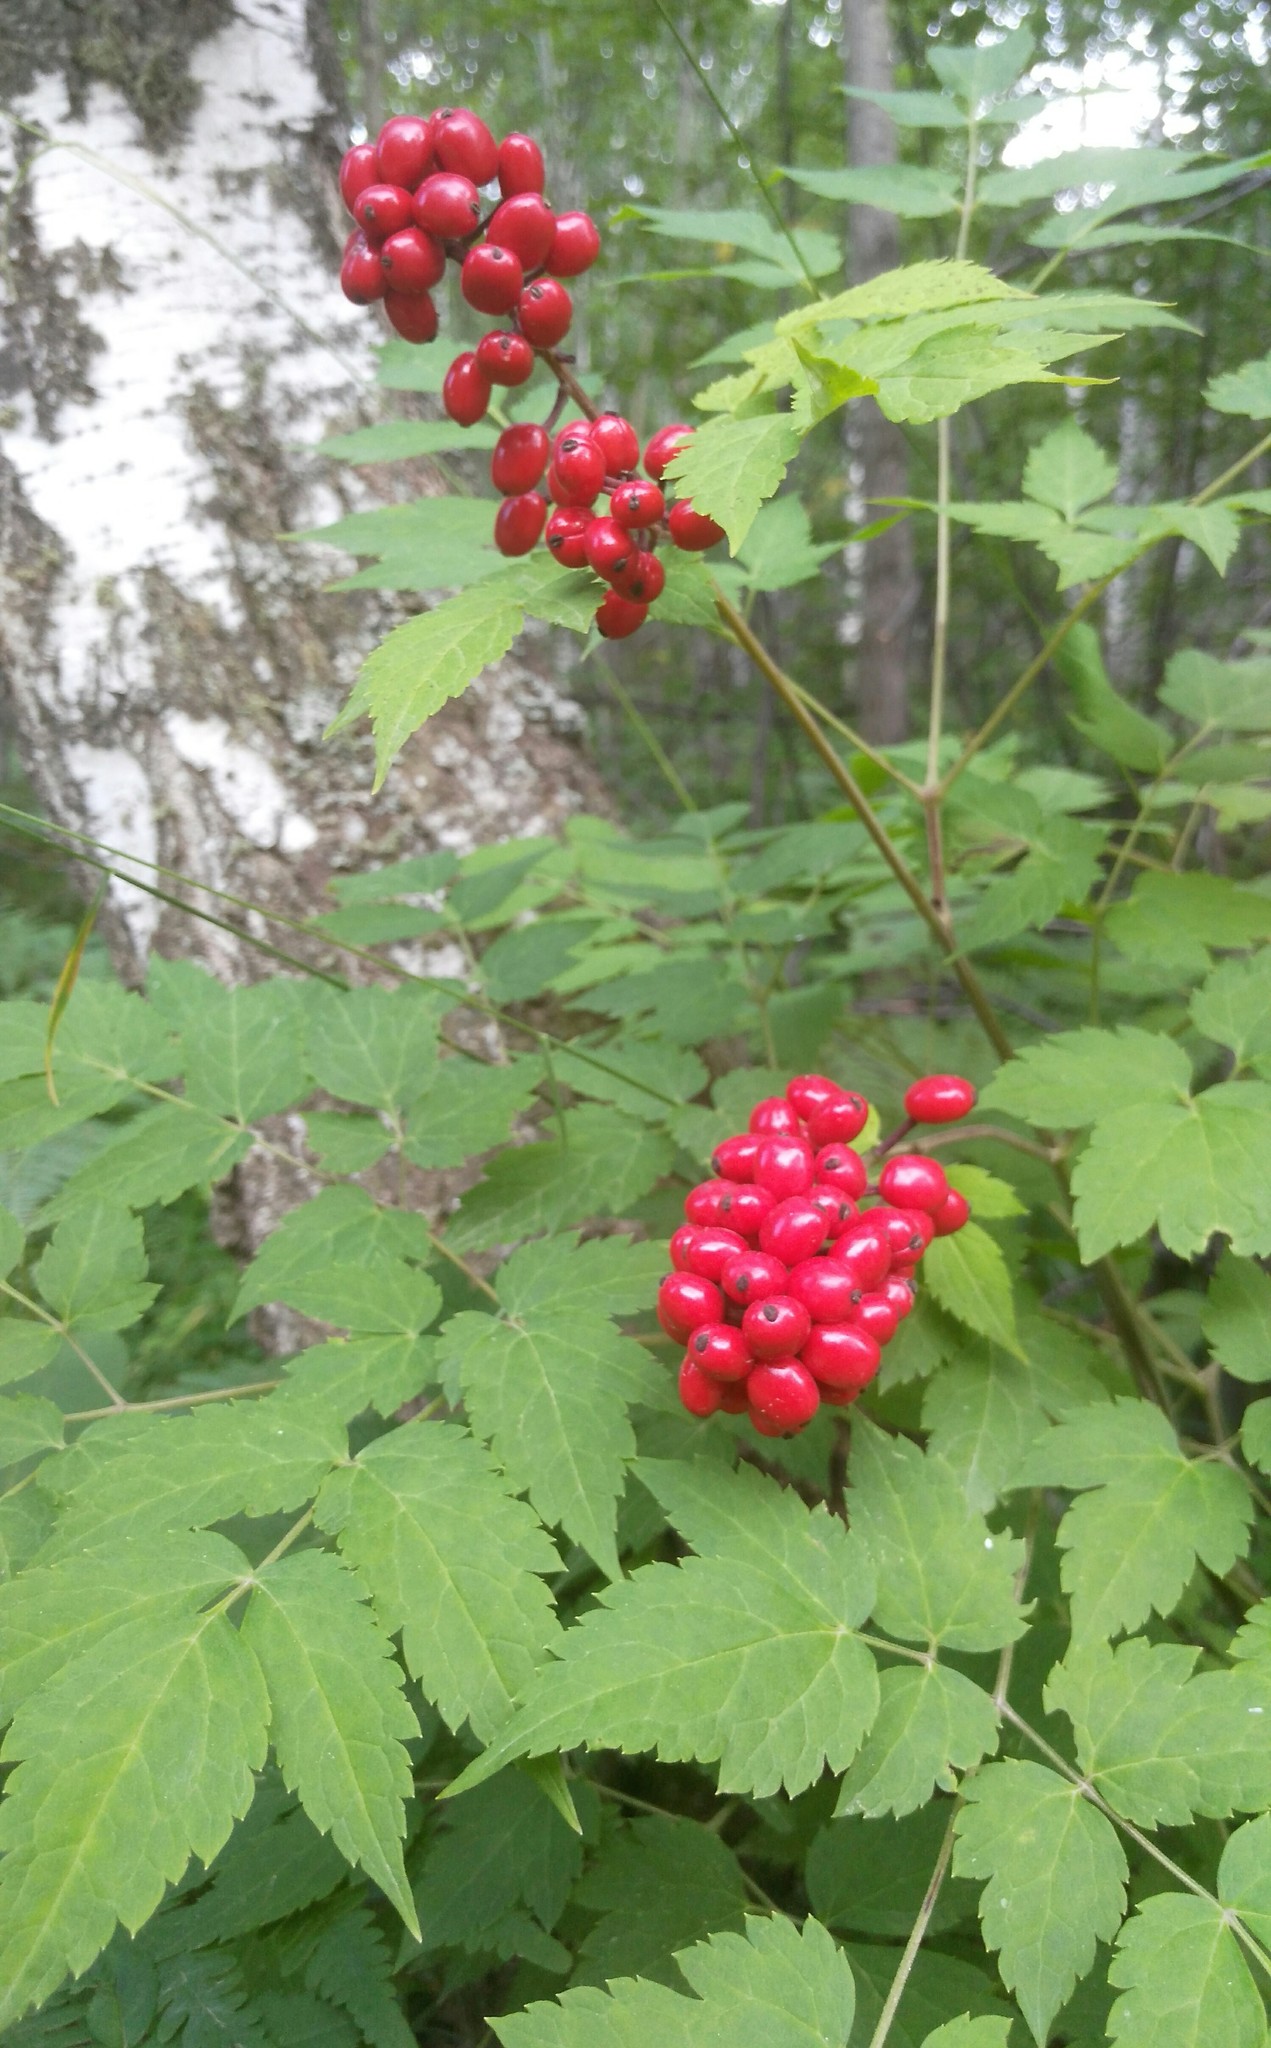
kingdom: Plantae
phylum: Tracheophyta
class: Magnoliopsida
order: Ranunculales
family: Ranunculaceae
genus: Actaea
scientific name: Actaea erythrocarpa
